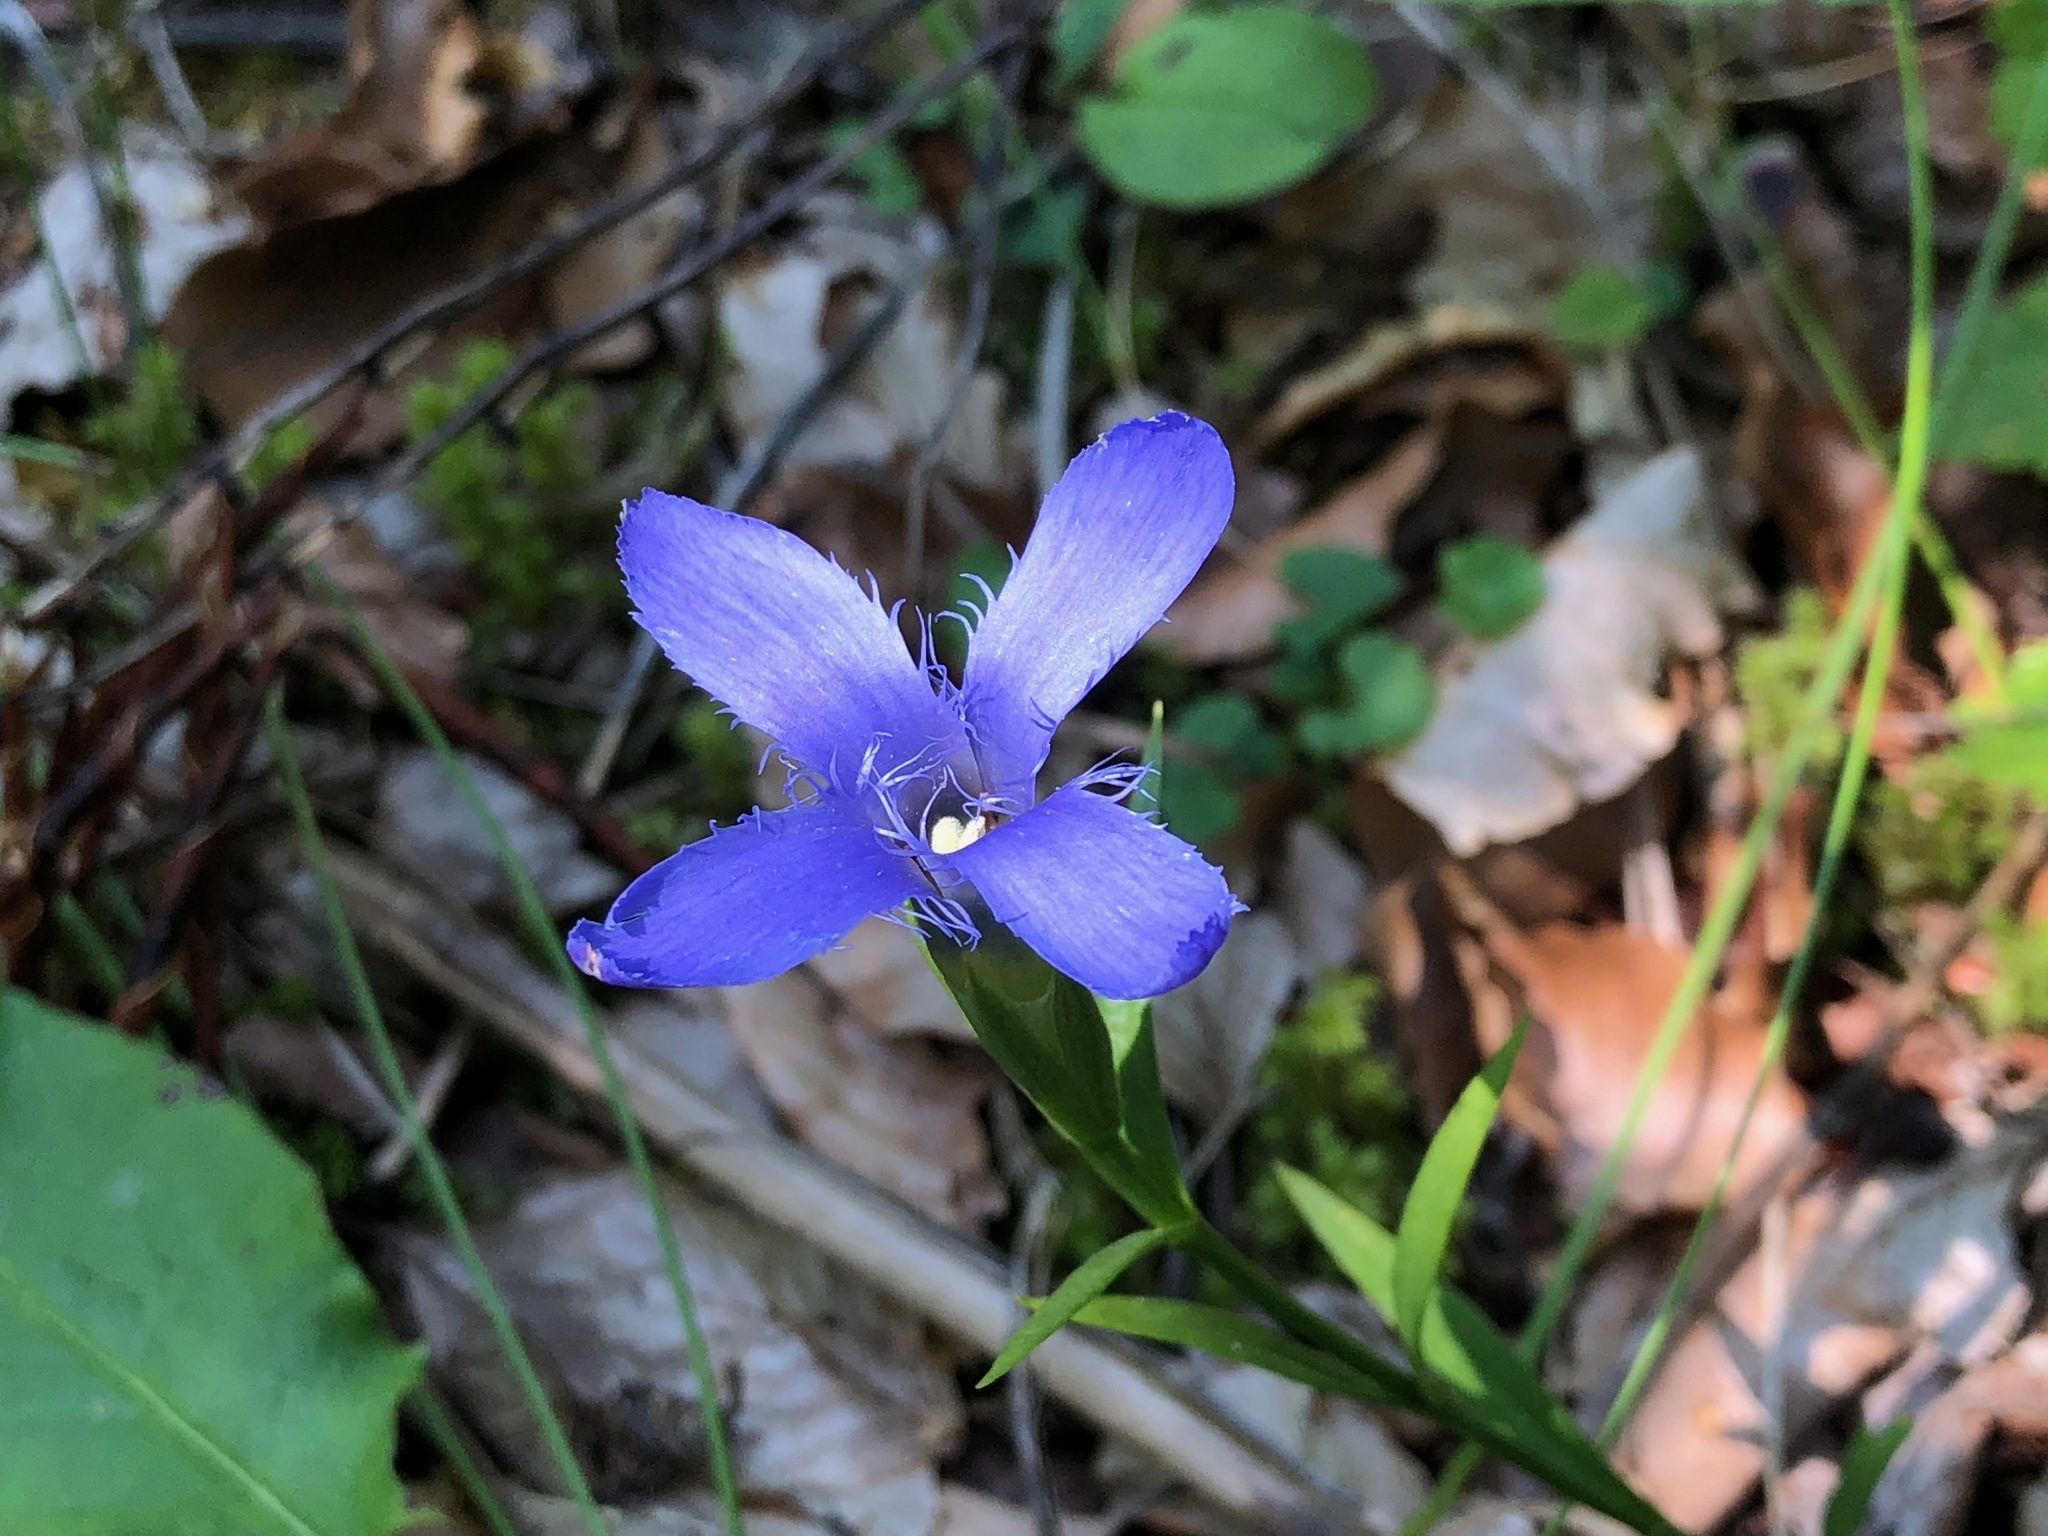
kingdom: Plantae
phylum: Tracheophyta
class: Magnoliopsida
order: Gentianales
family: Gentianaceae
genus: Gentianopsis
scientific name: Gentianopsis ciliata
